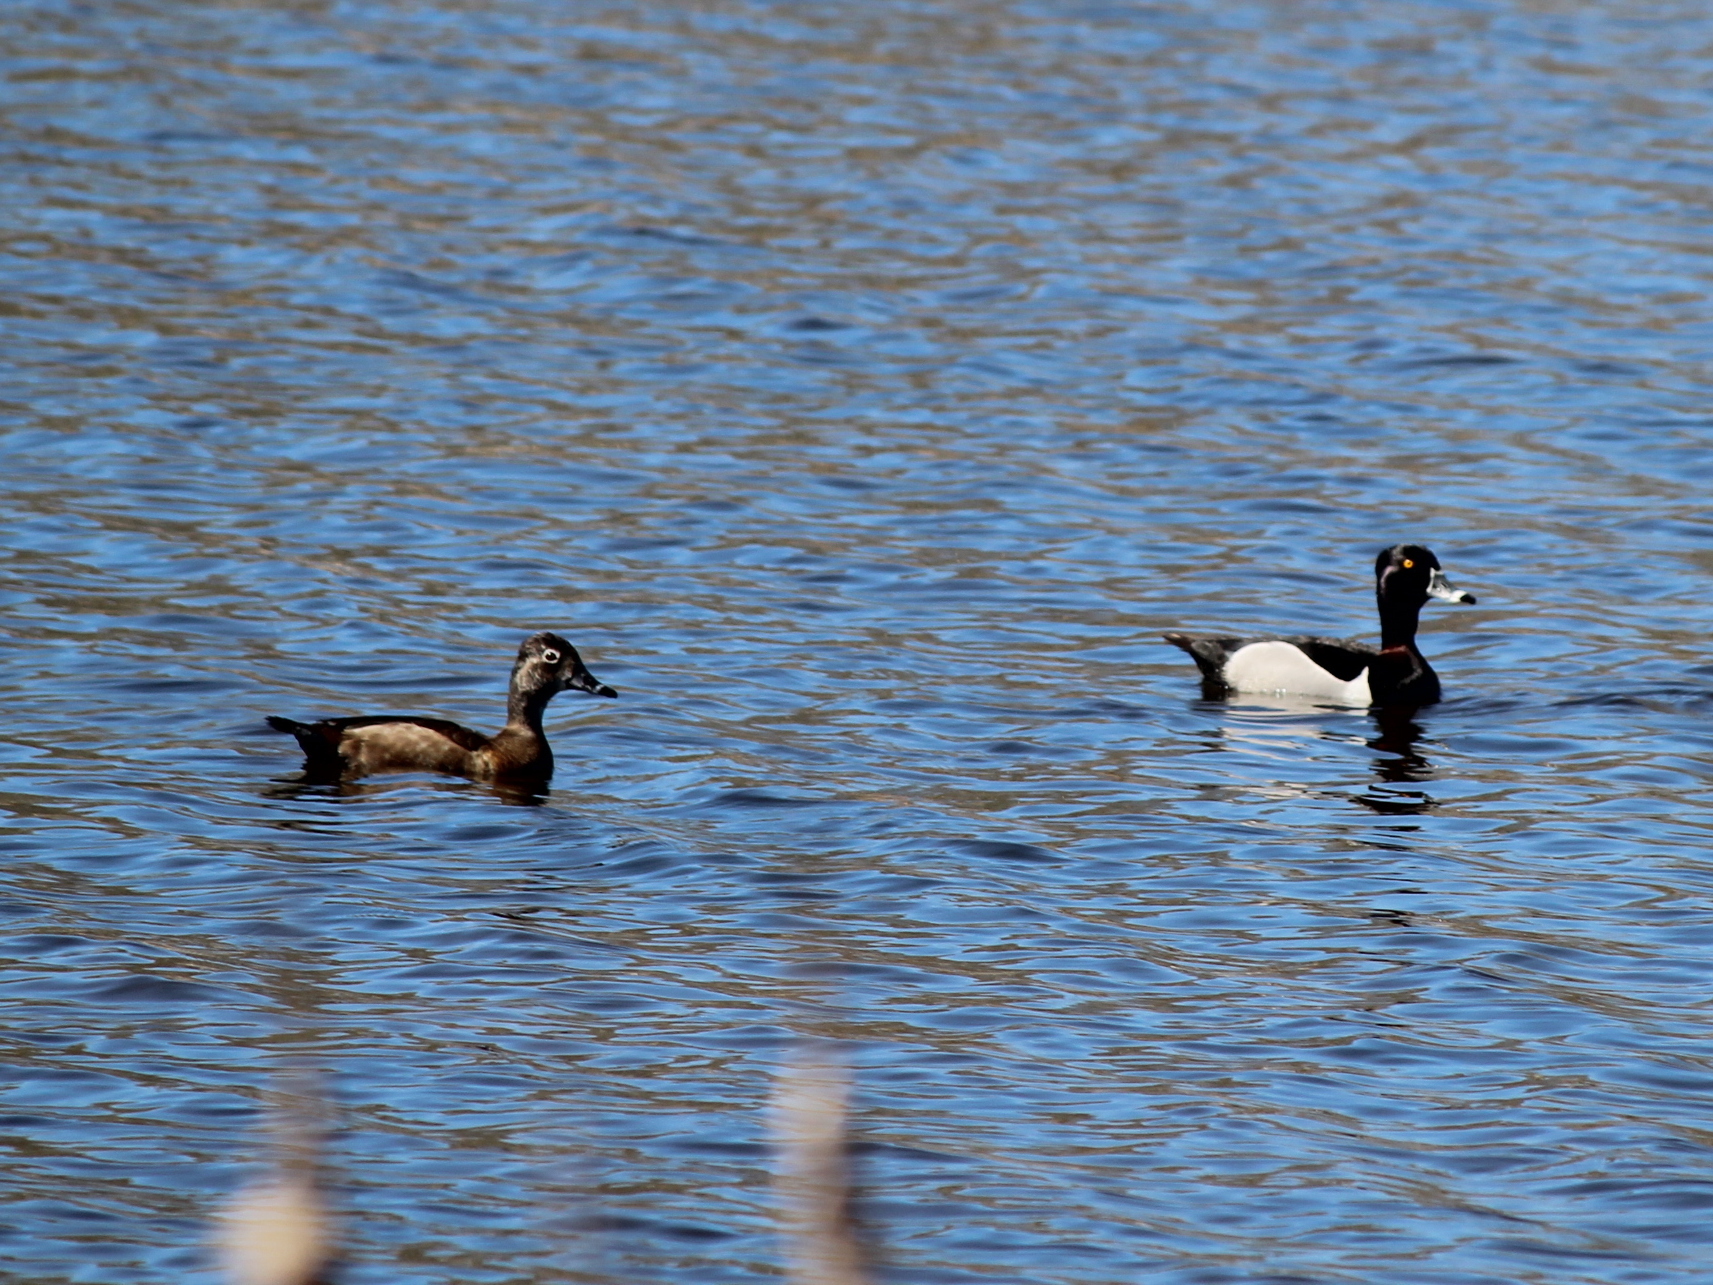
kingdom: Animalia
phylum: Chordata
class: Aves
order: Anseriformes
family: Anatidae
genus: Aythya
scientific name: Aythya collaris
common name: Ring-necked duck
